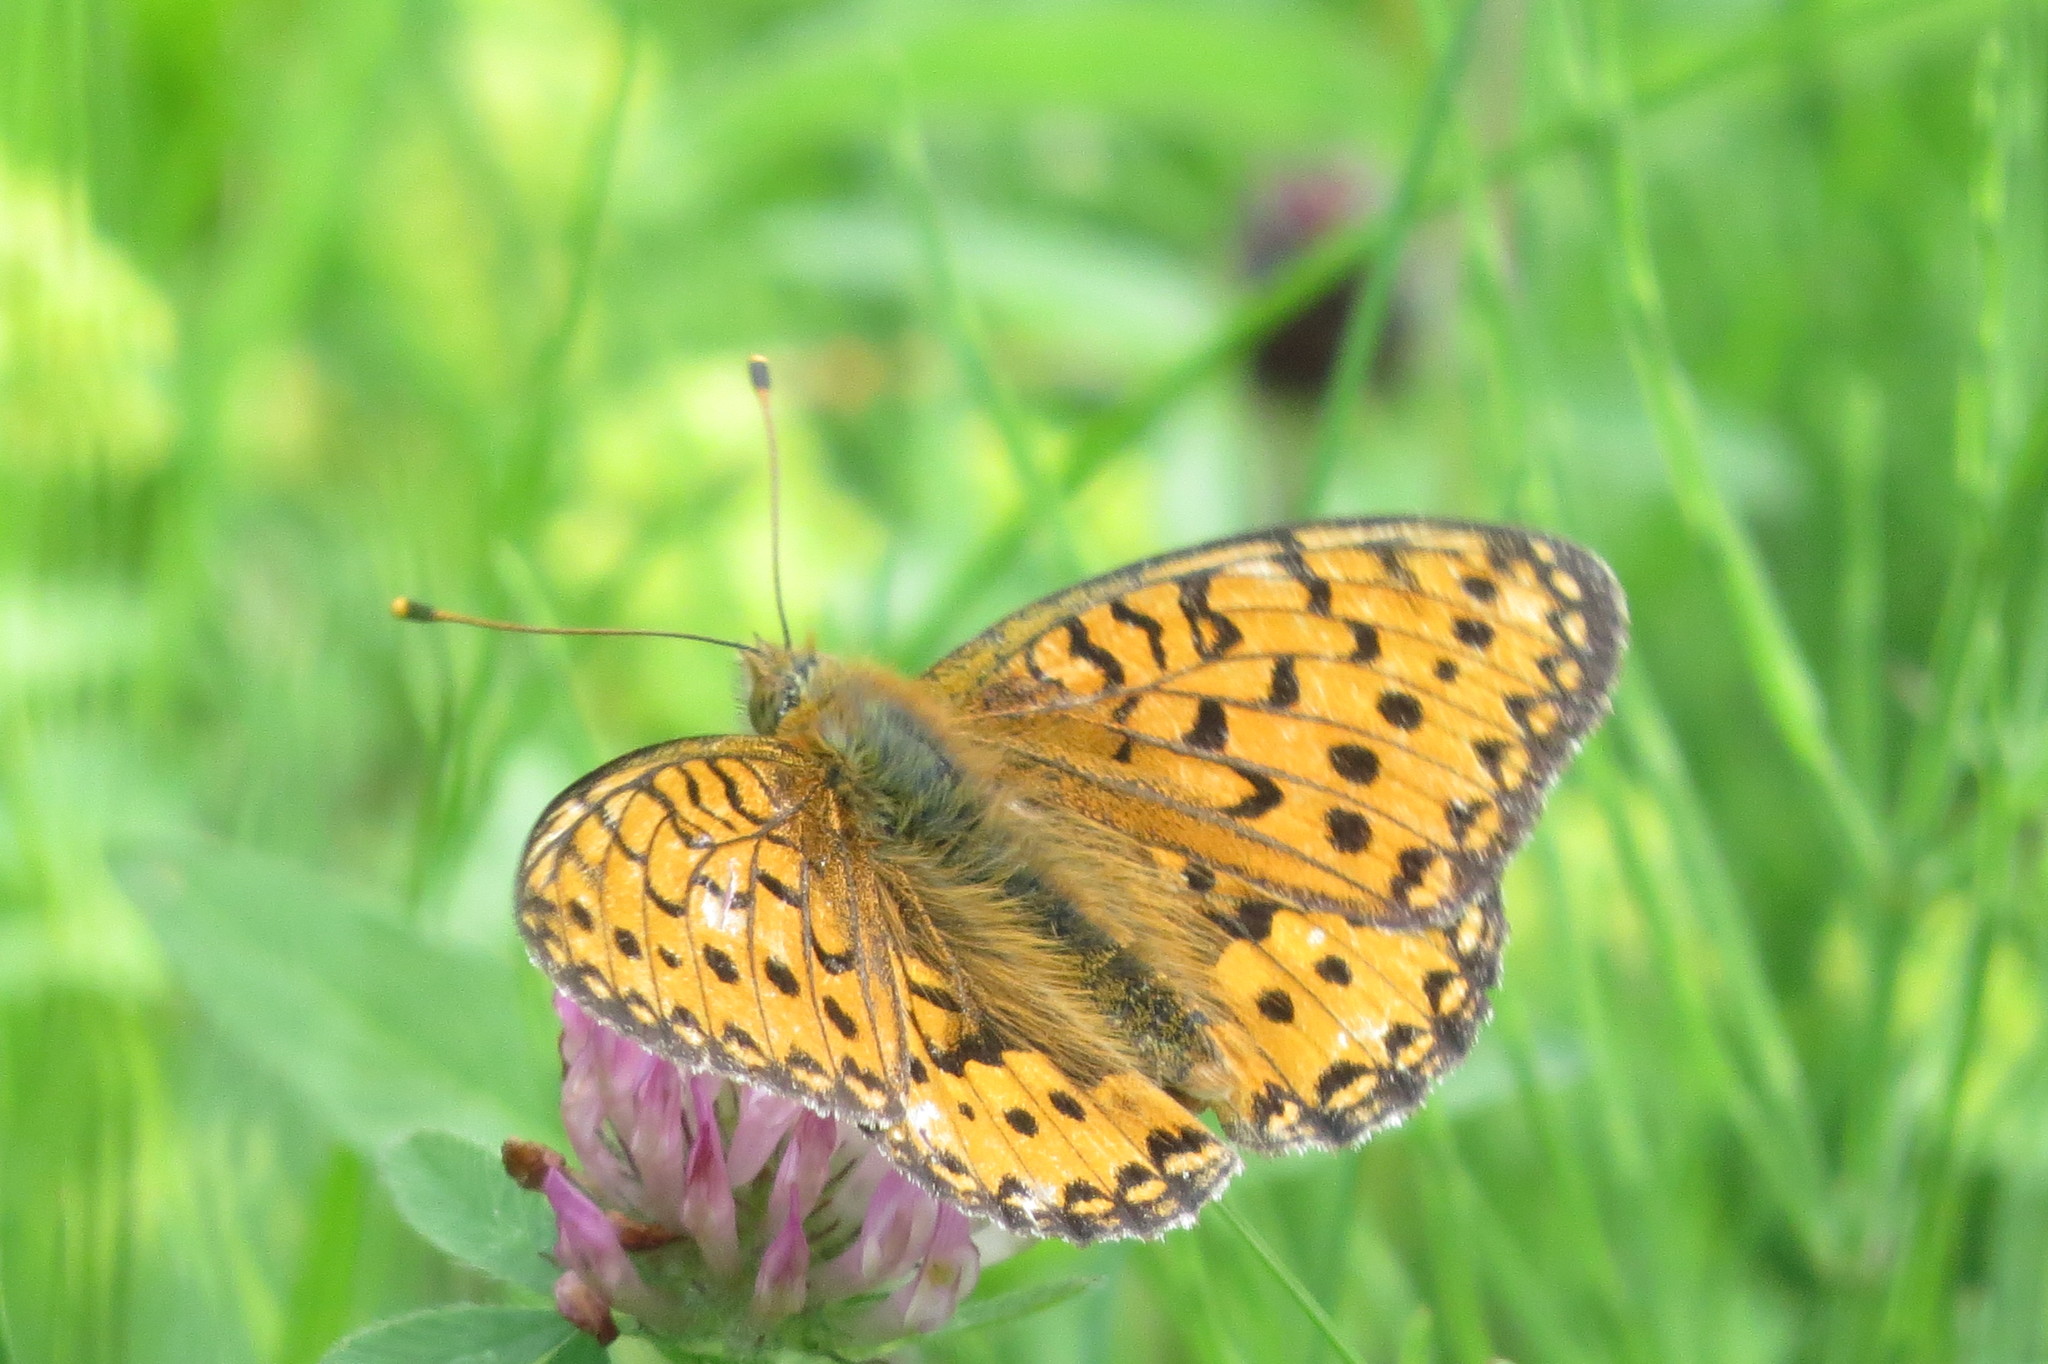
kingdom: Animalia
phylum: Arthropoda
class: Insecta
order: Lepidoptera
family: Nymphalidae
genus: Speyeria
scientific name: Speyeria aglaja
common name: Dark green fritillary
